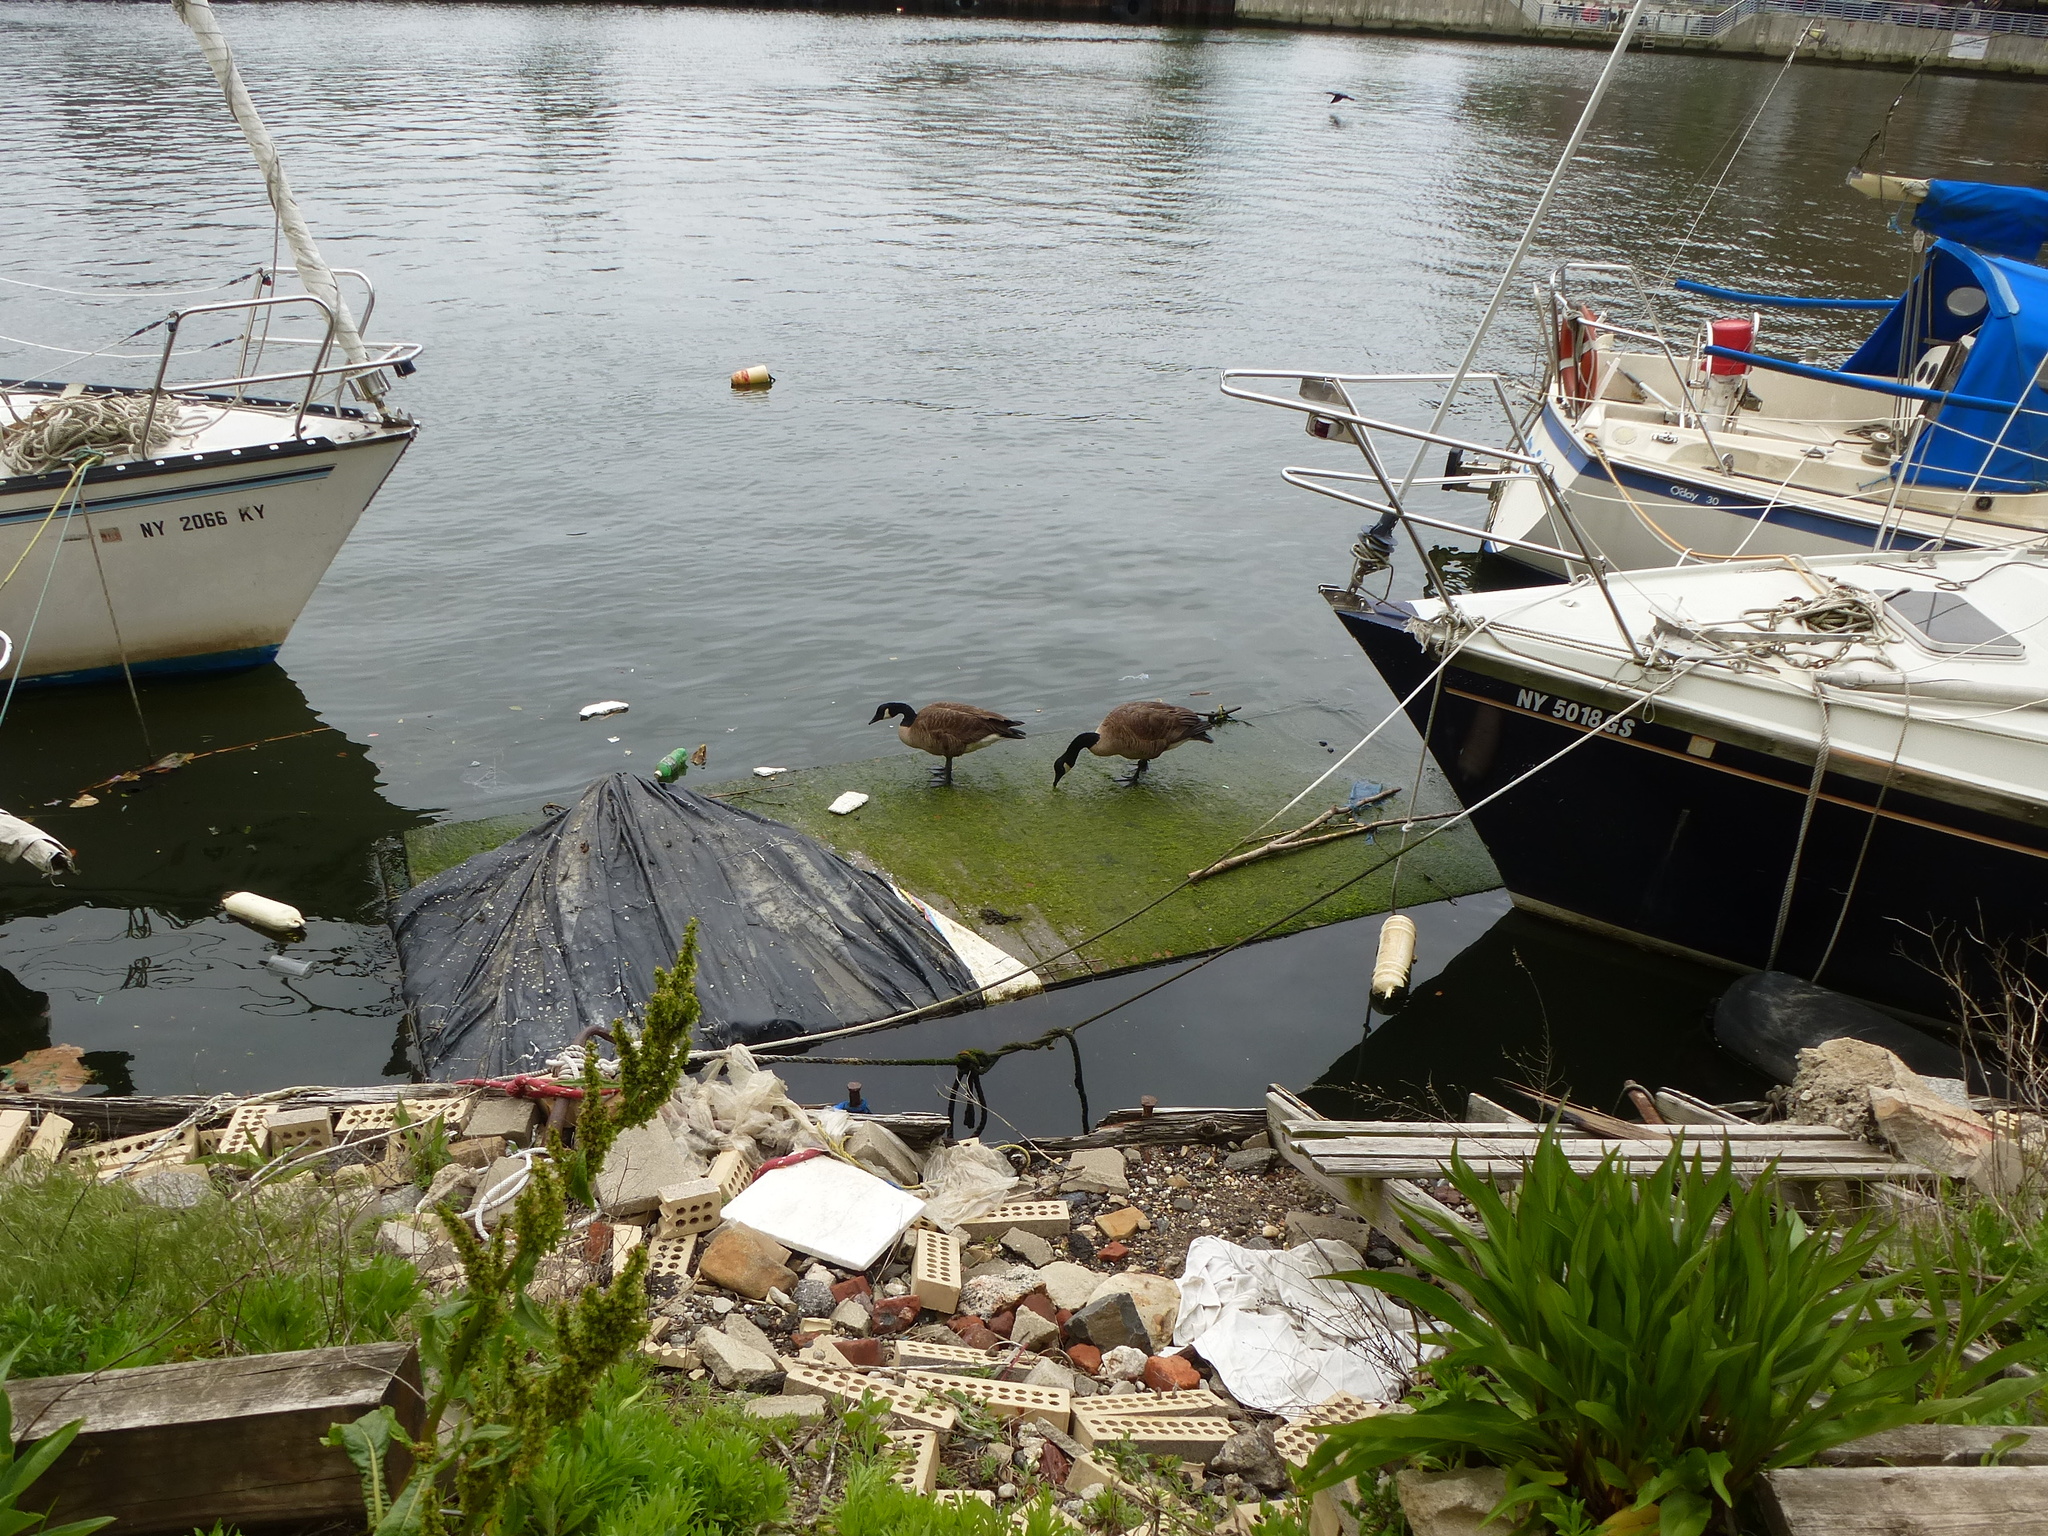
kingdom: Animalia
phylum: Chordata
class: Aves
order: Anseriformes
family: Anatidae
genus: Branta
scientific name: Branta canadensis
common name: Canada goose
